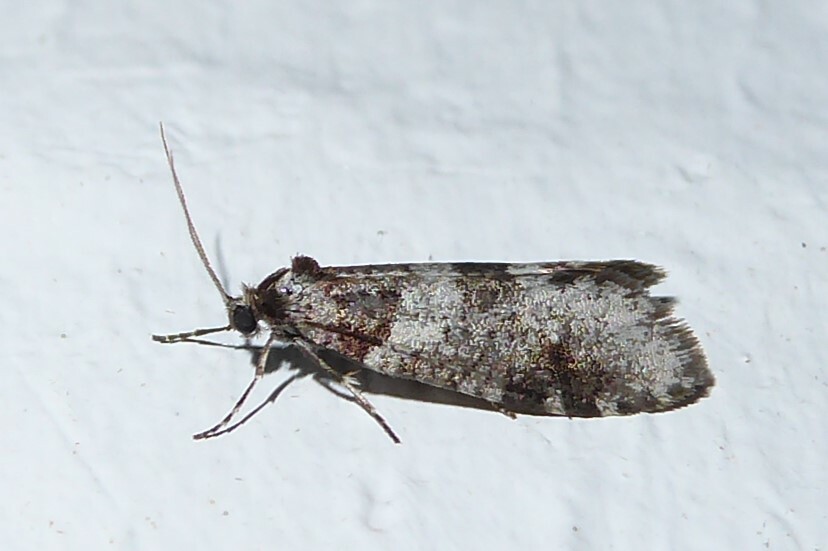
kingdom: Animalia
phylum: Arthropoda
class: Insecta
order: Lepidoptera
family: Psychidae
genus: Lepidoscia
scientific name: Lepidoscia heliochares
